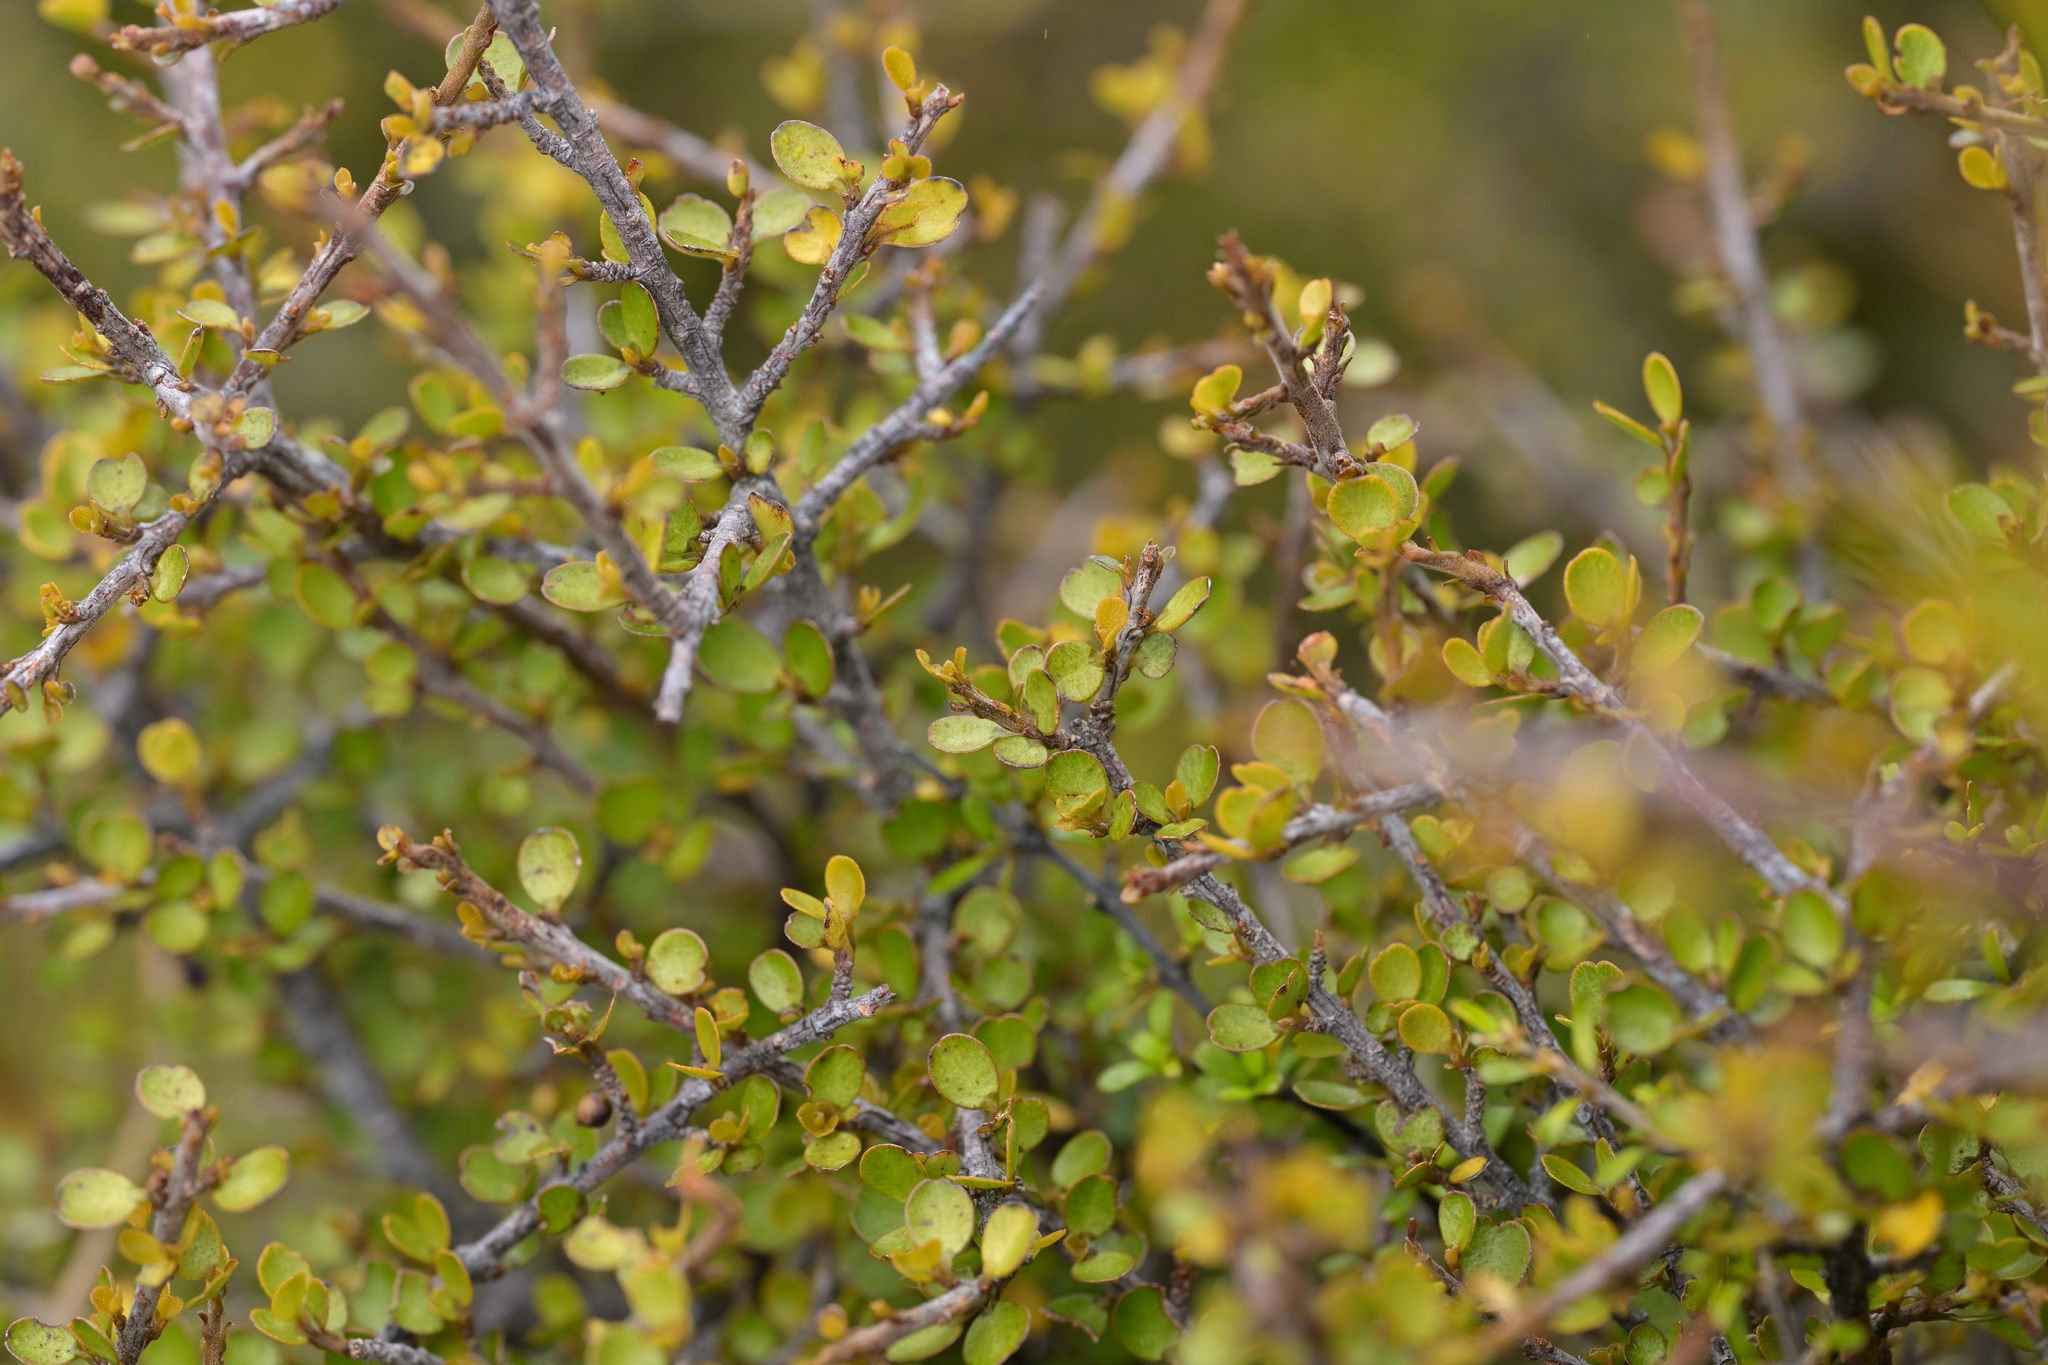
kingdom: Plantae
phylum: Tracheophyta
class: Magnoliopsida
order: Ericales
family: Primulaceae
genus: Myrsine
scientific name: Myrsine divaricata
